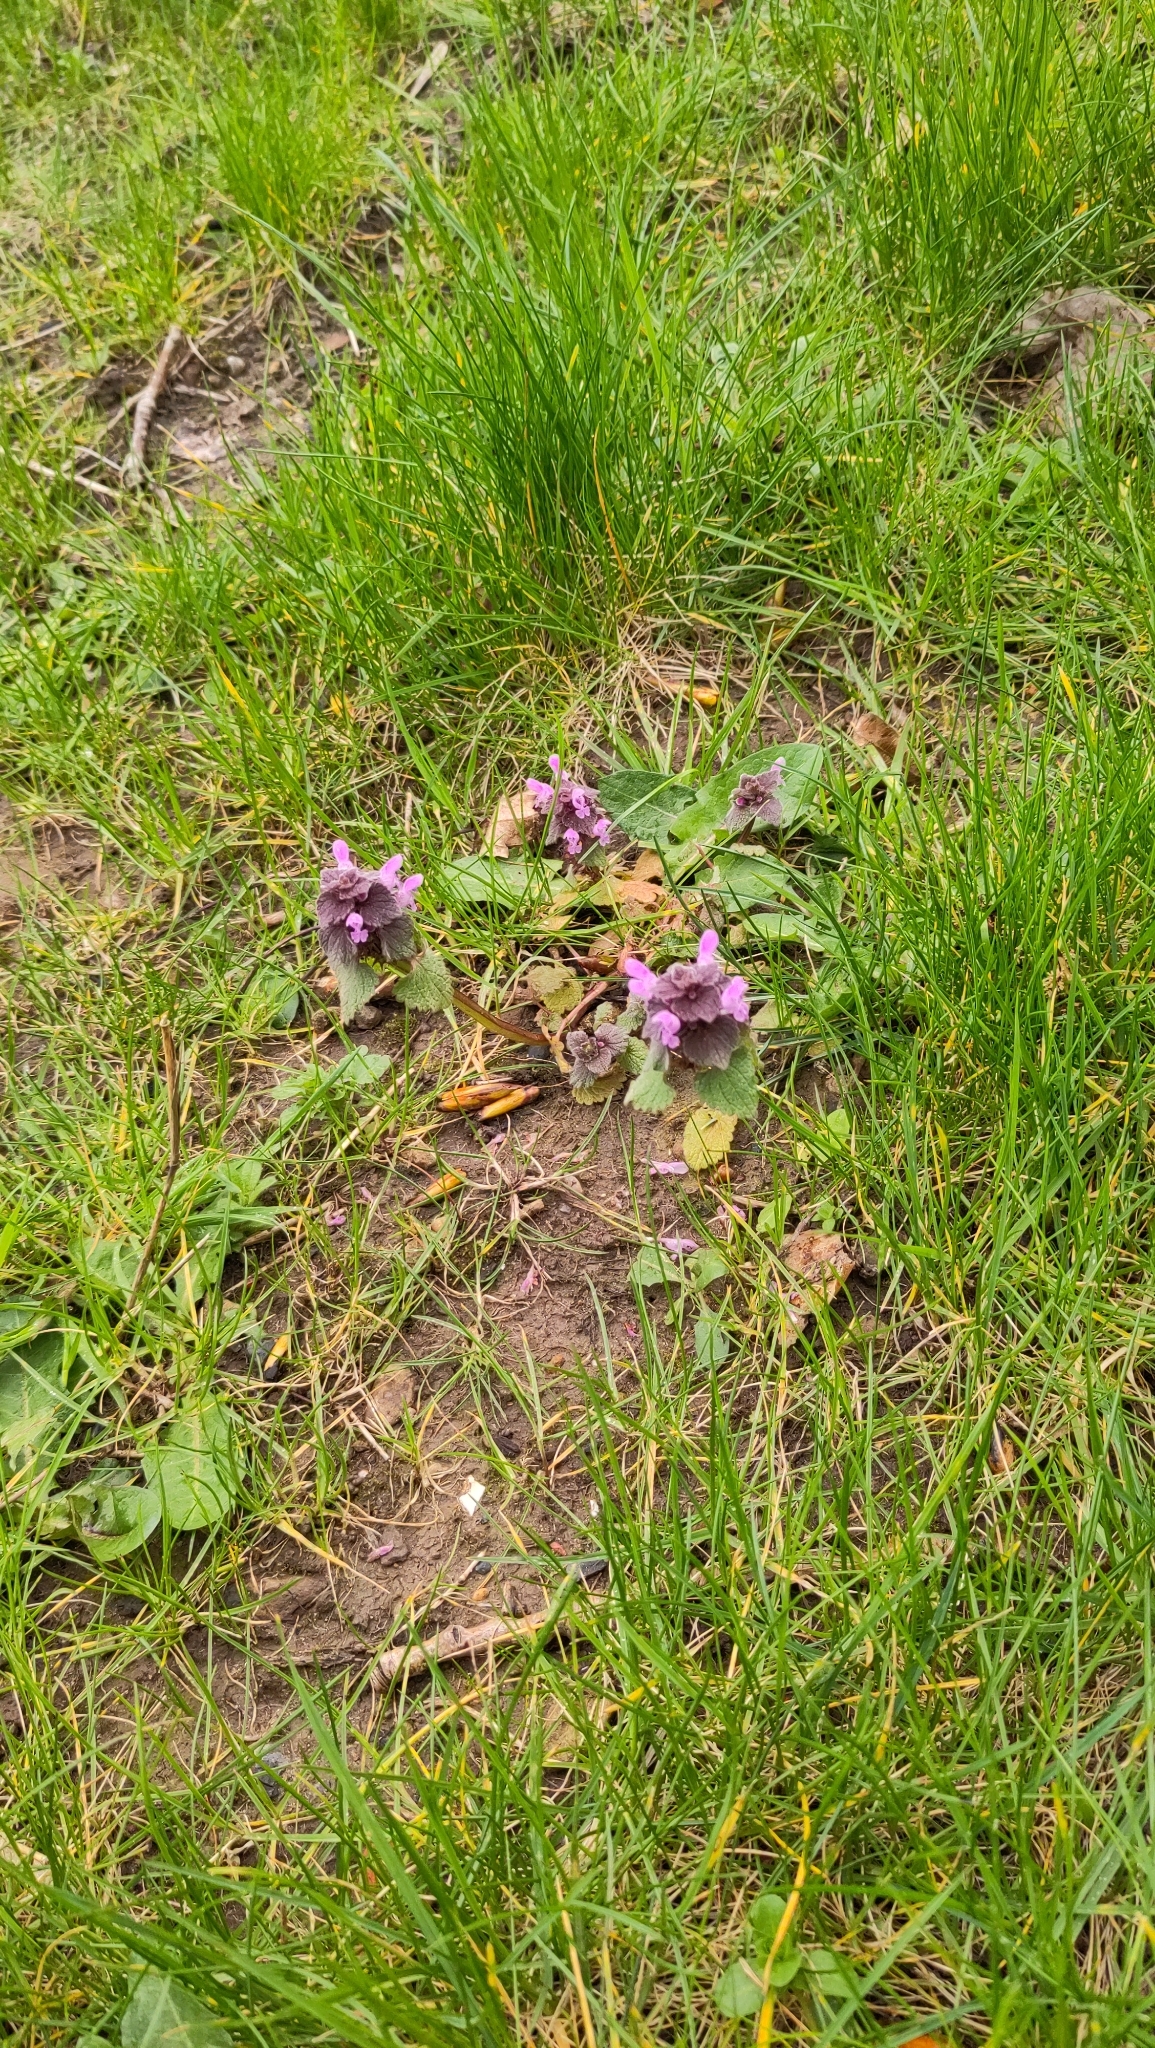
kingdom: Plantae
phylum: Tracheophyta
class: Magnoliopsida
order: Lamiales
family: Lamiaceae
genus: Lamium
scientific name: Lamium purpureum
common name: Red dead-nettle
